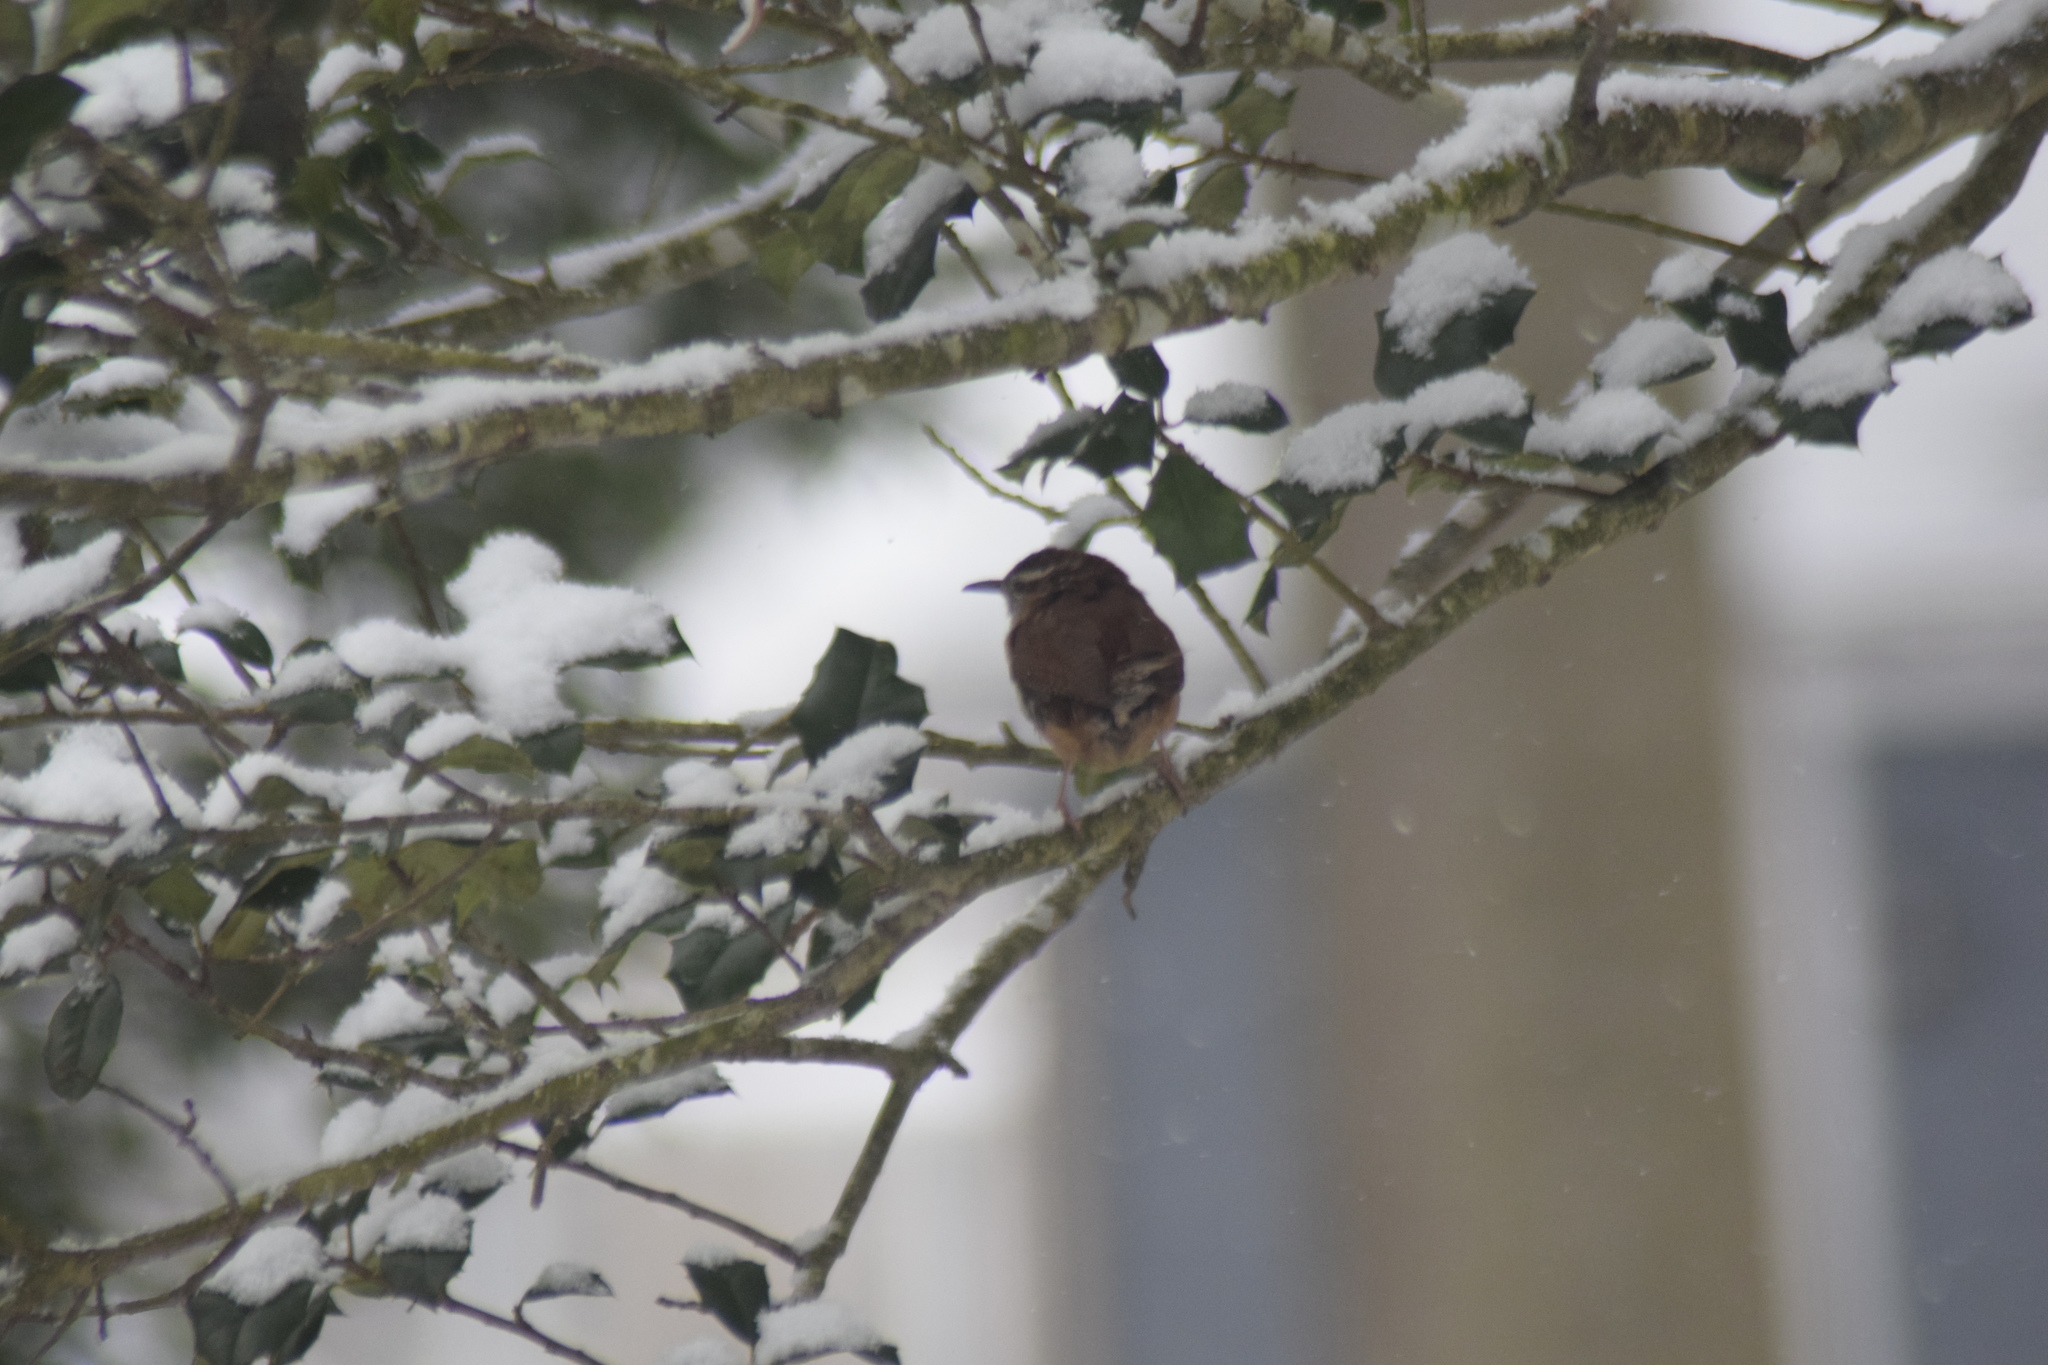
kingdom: Animalia
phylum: Chordata
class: Aves
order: Passeriformes
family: Troglodytidae
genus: Thryothorus
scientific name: Thryothorus ludovicianus
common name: Carolina wren
